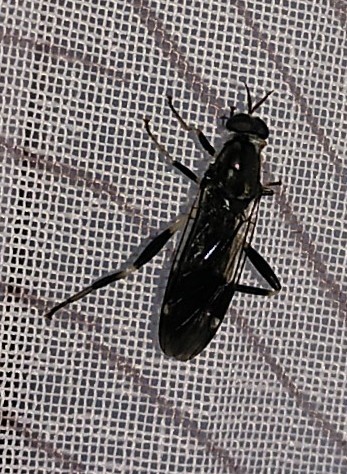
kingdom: Animalia
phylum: Arthropoda
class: Insecta
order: Diptera
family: Stratiomyidae
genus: Exaireta
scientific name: Exaireta spinigera
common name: Blue soldier fly
